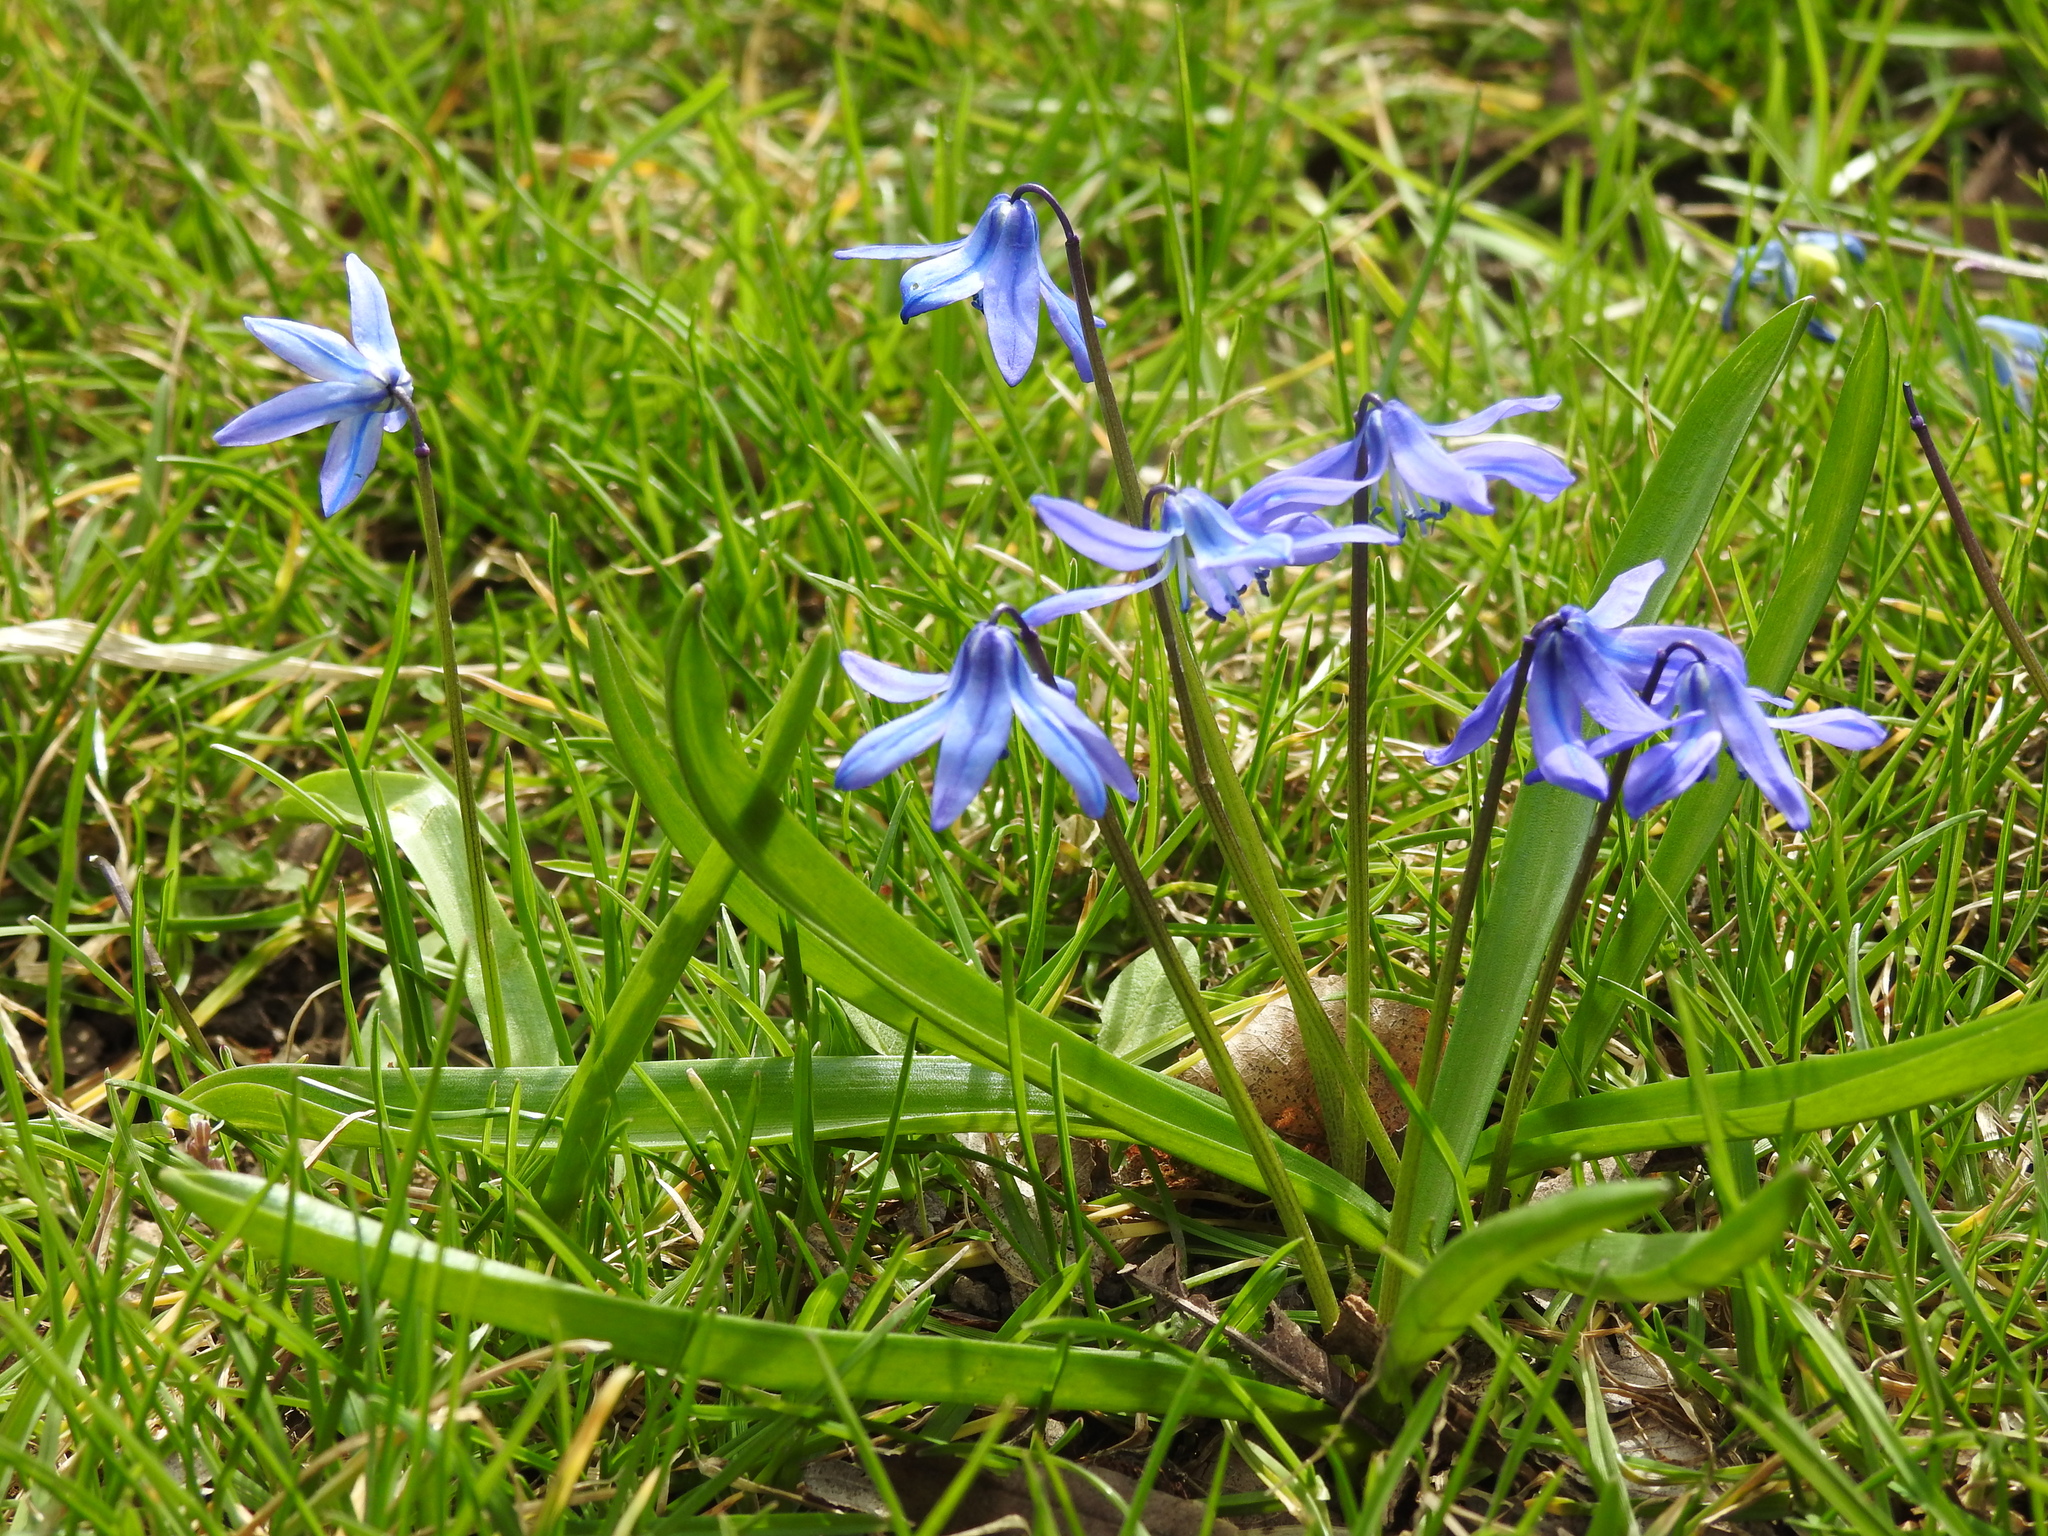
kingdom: Plantae
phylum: Tracheophyta
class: Liliopsida
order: Asparagales
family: Asparagaceae
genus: Scilla
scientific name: Scilla siberica
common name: Siberian squill
